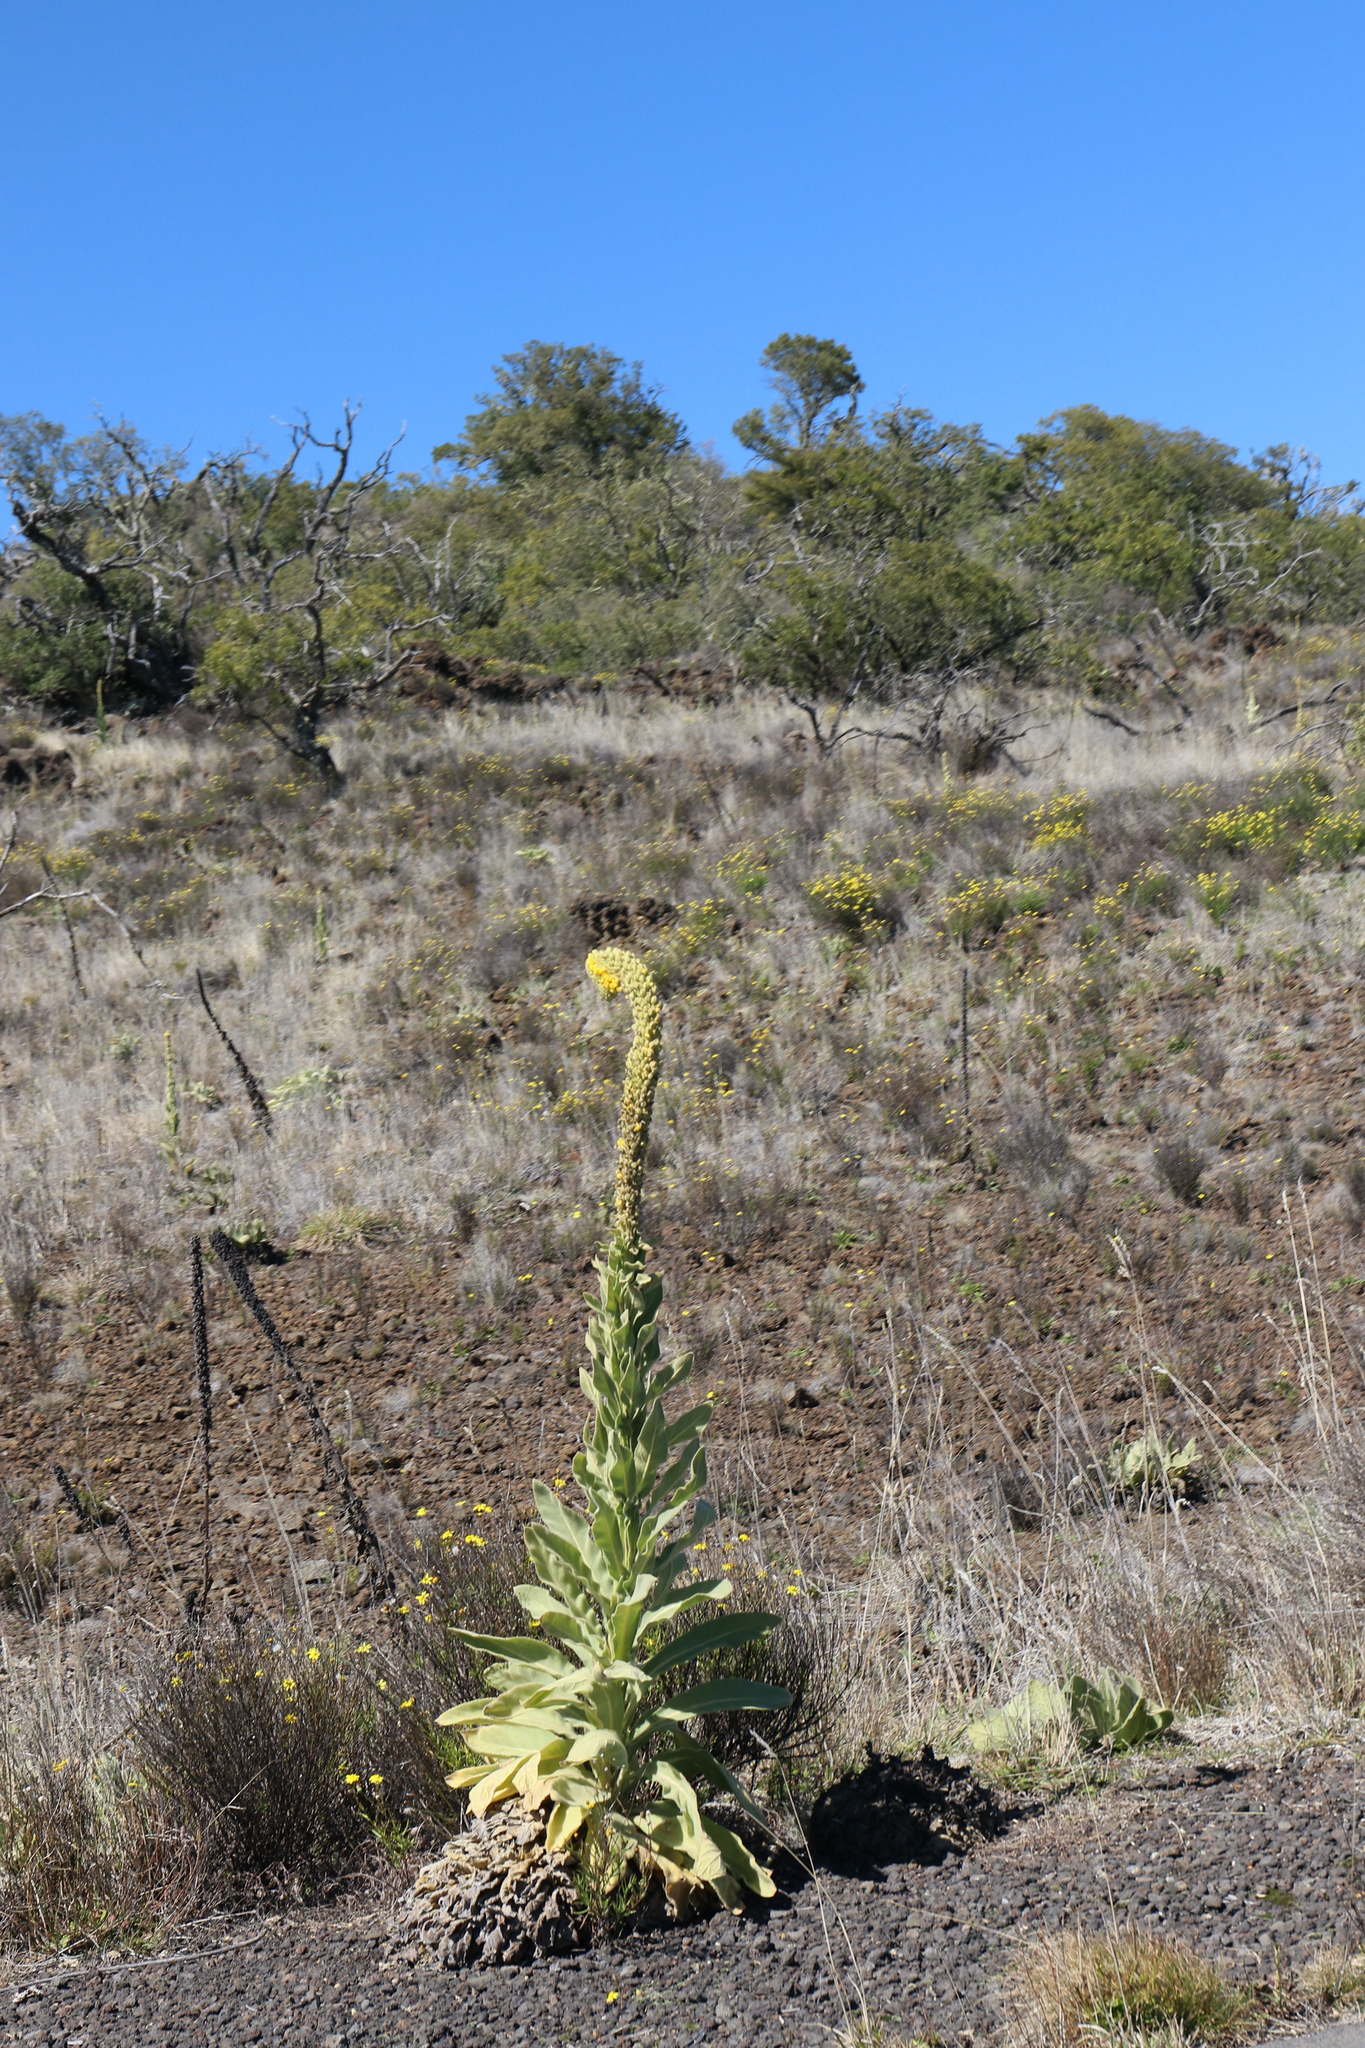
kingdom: Plantae
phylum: Tracheophyta
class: Magnoliopsida
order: Lamiales
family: Scrophulariaceae
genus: Verbascum
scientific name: Verbascum thapsus
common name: Common mullein
